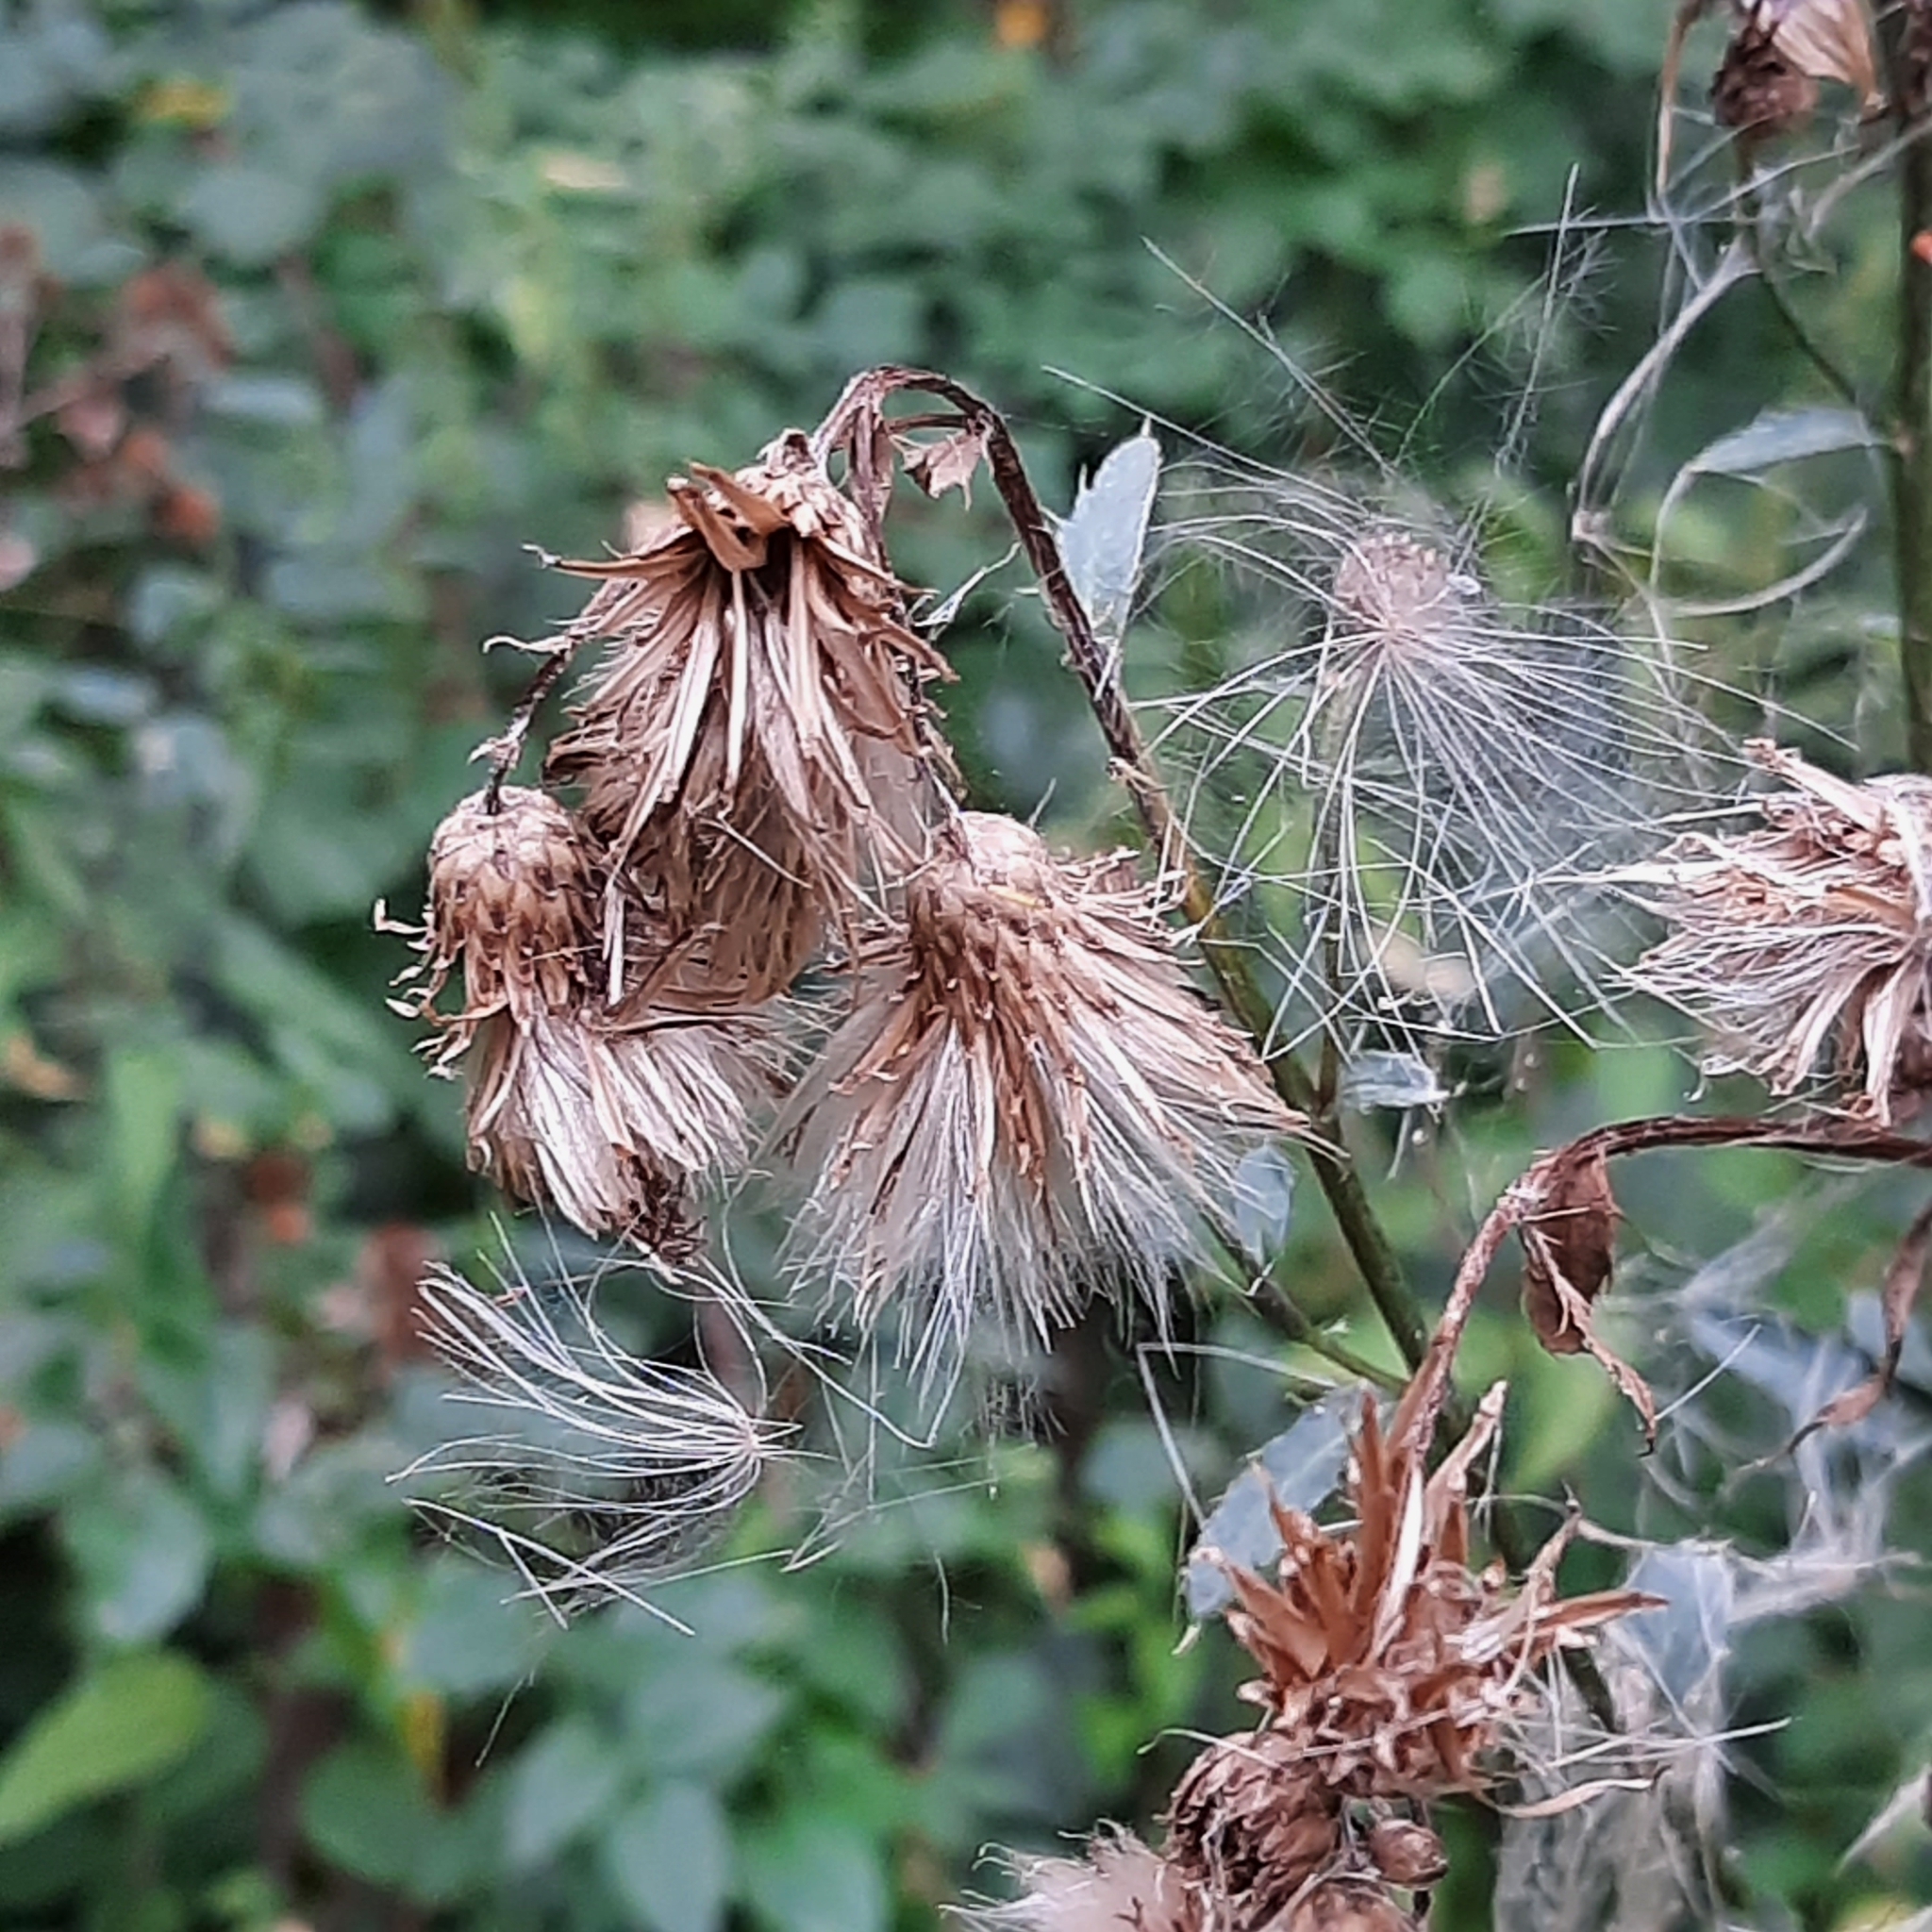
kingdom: Plantae
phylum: Tracheophyta
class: Magnoliopsida
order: Asterales
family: Asteraceae
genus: Cirsium
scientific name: Cirsium arvense
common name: Creeping thistle
